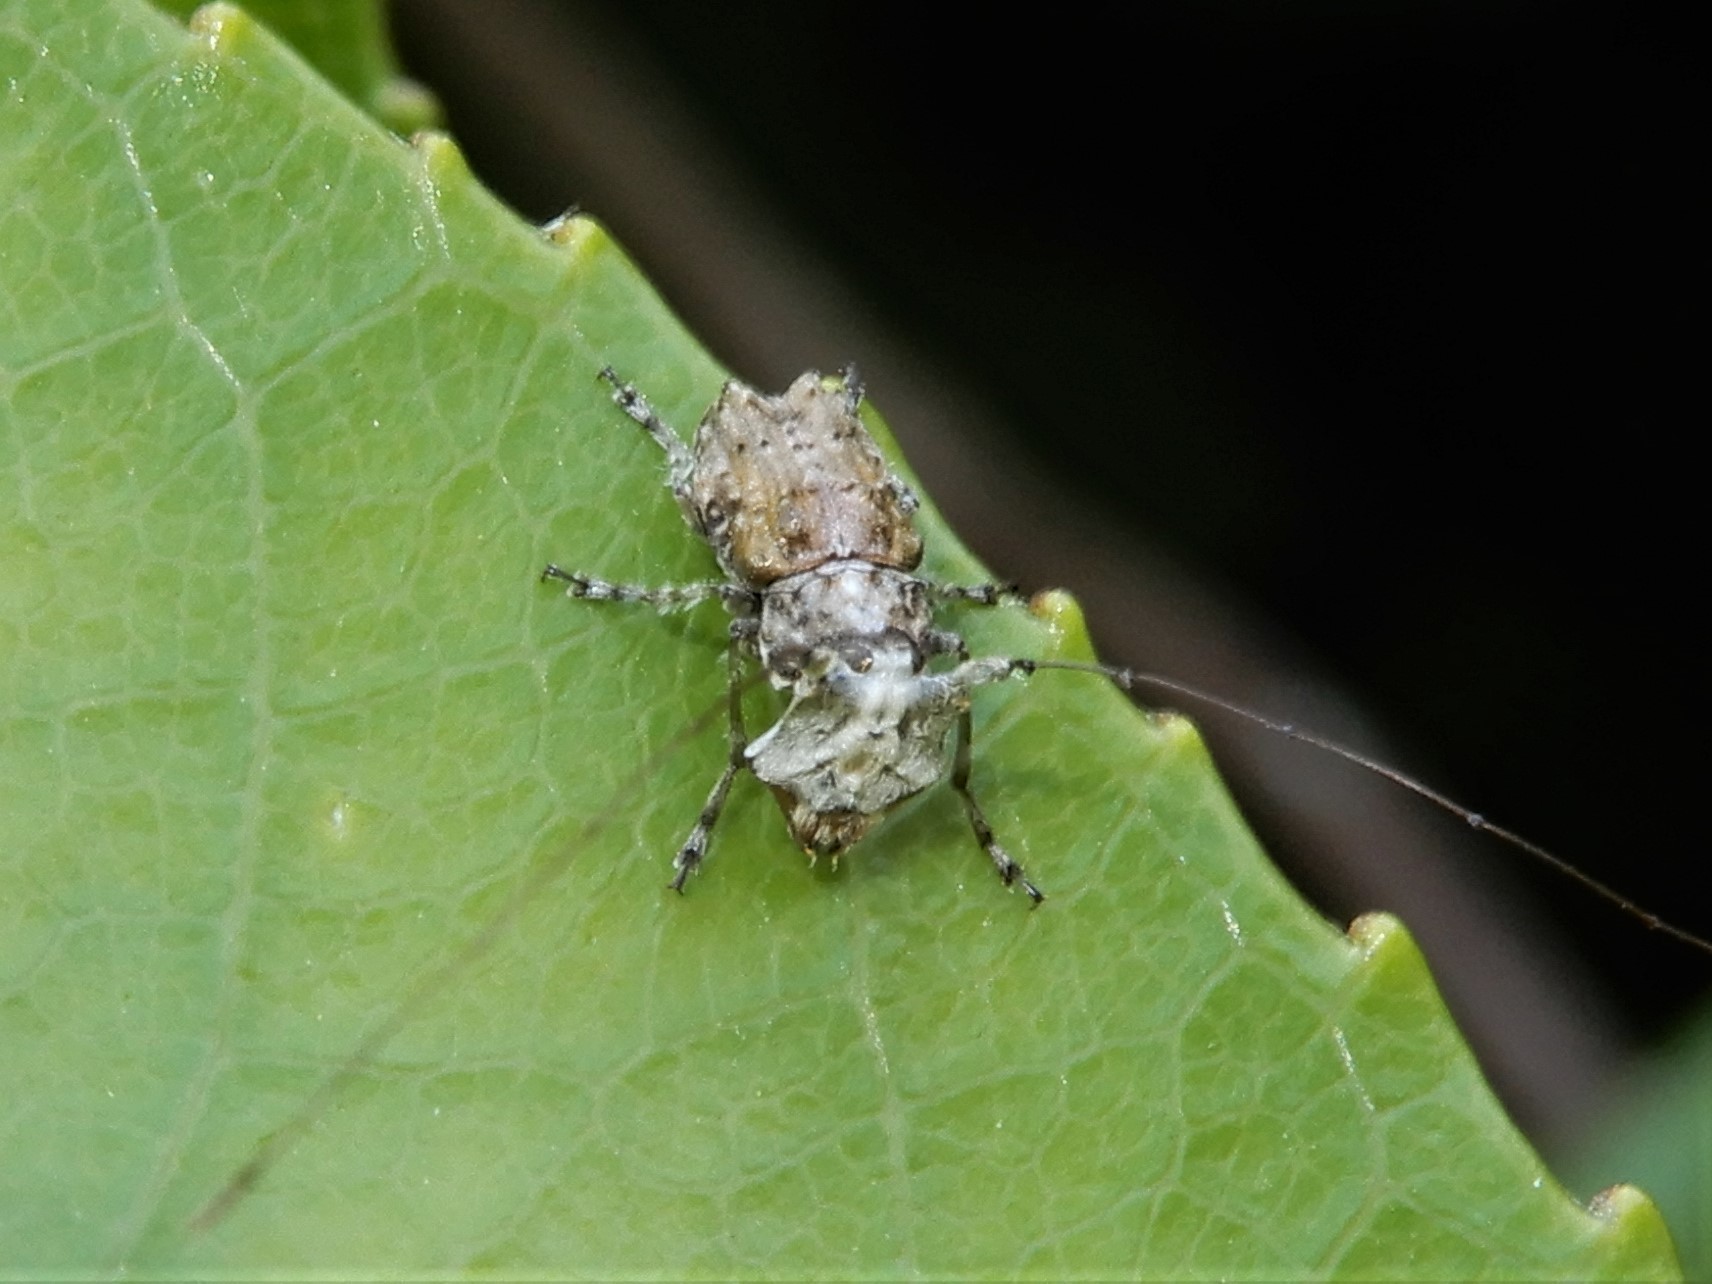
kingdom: Animalia
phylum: Arthropoda
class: Insecta
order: Coleoptera
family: Anthribidae
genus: Hoherius
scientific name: Hoherius
